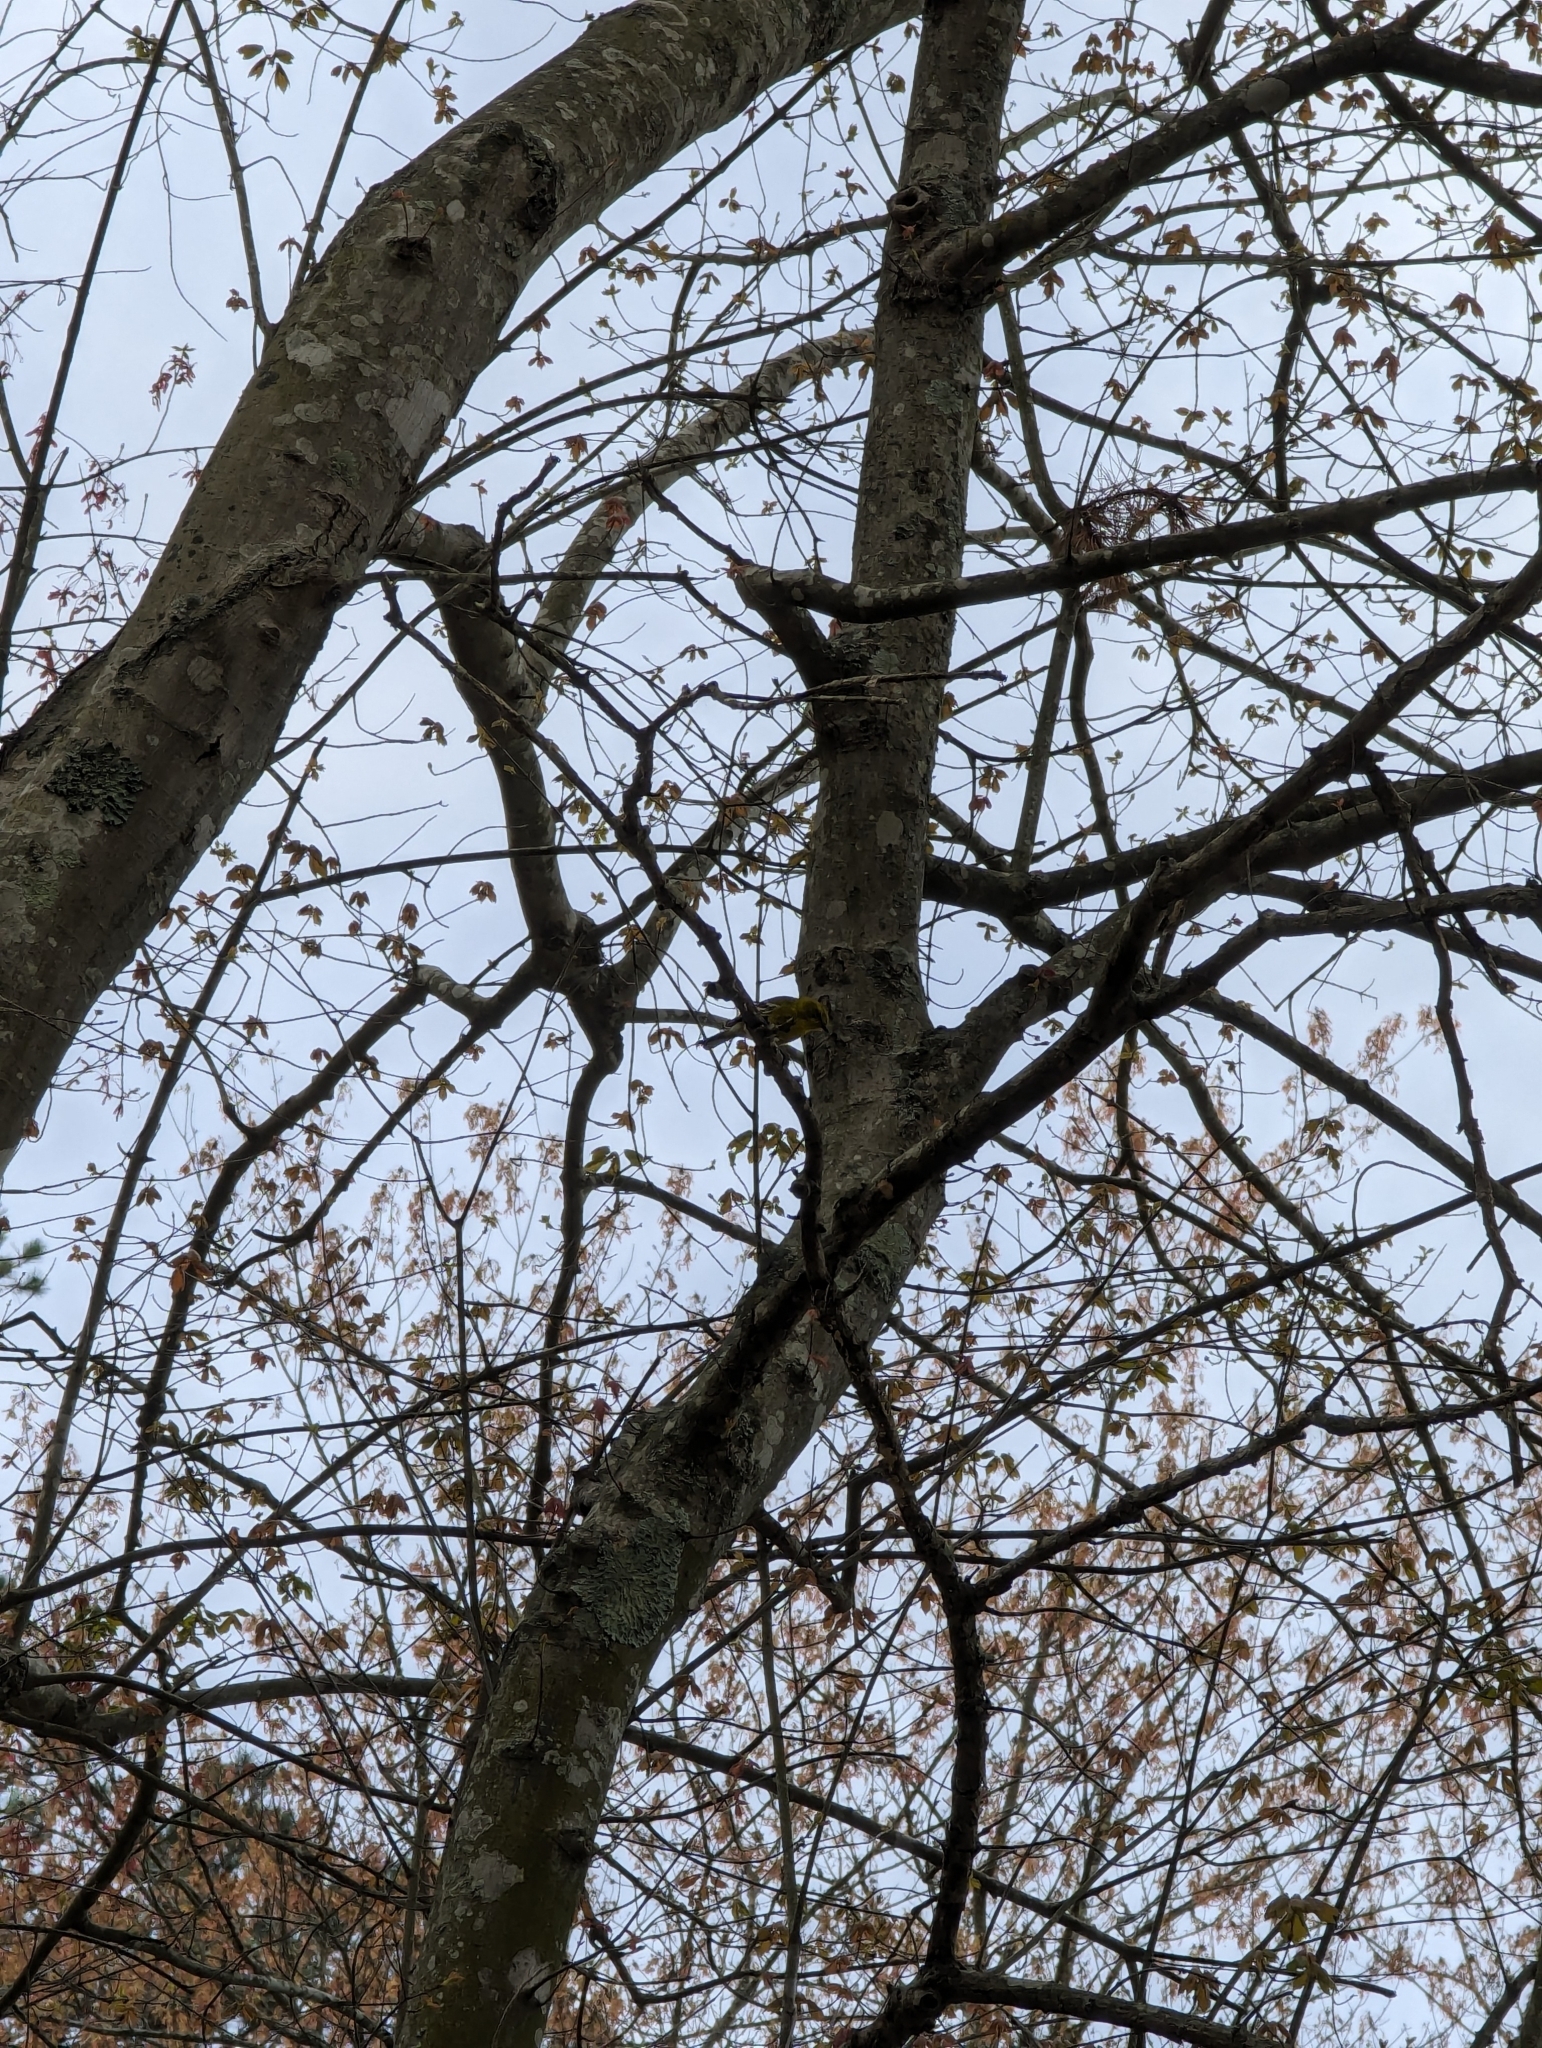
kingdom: Animalia
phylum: Chordata
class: Aves
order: Passeriformes
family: Parulidae
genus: Setophaga
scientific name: Setophaga pinus
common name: Pine warbler
